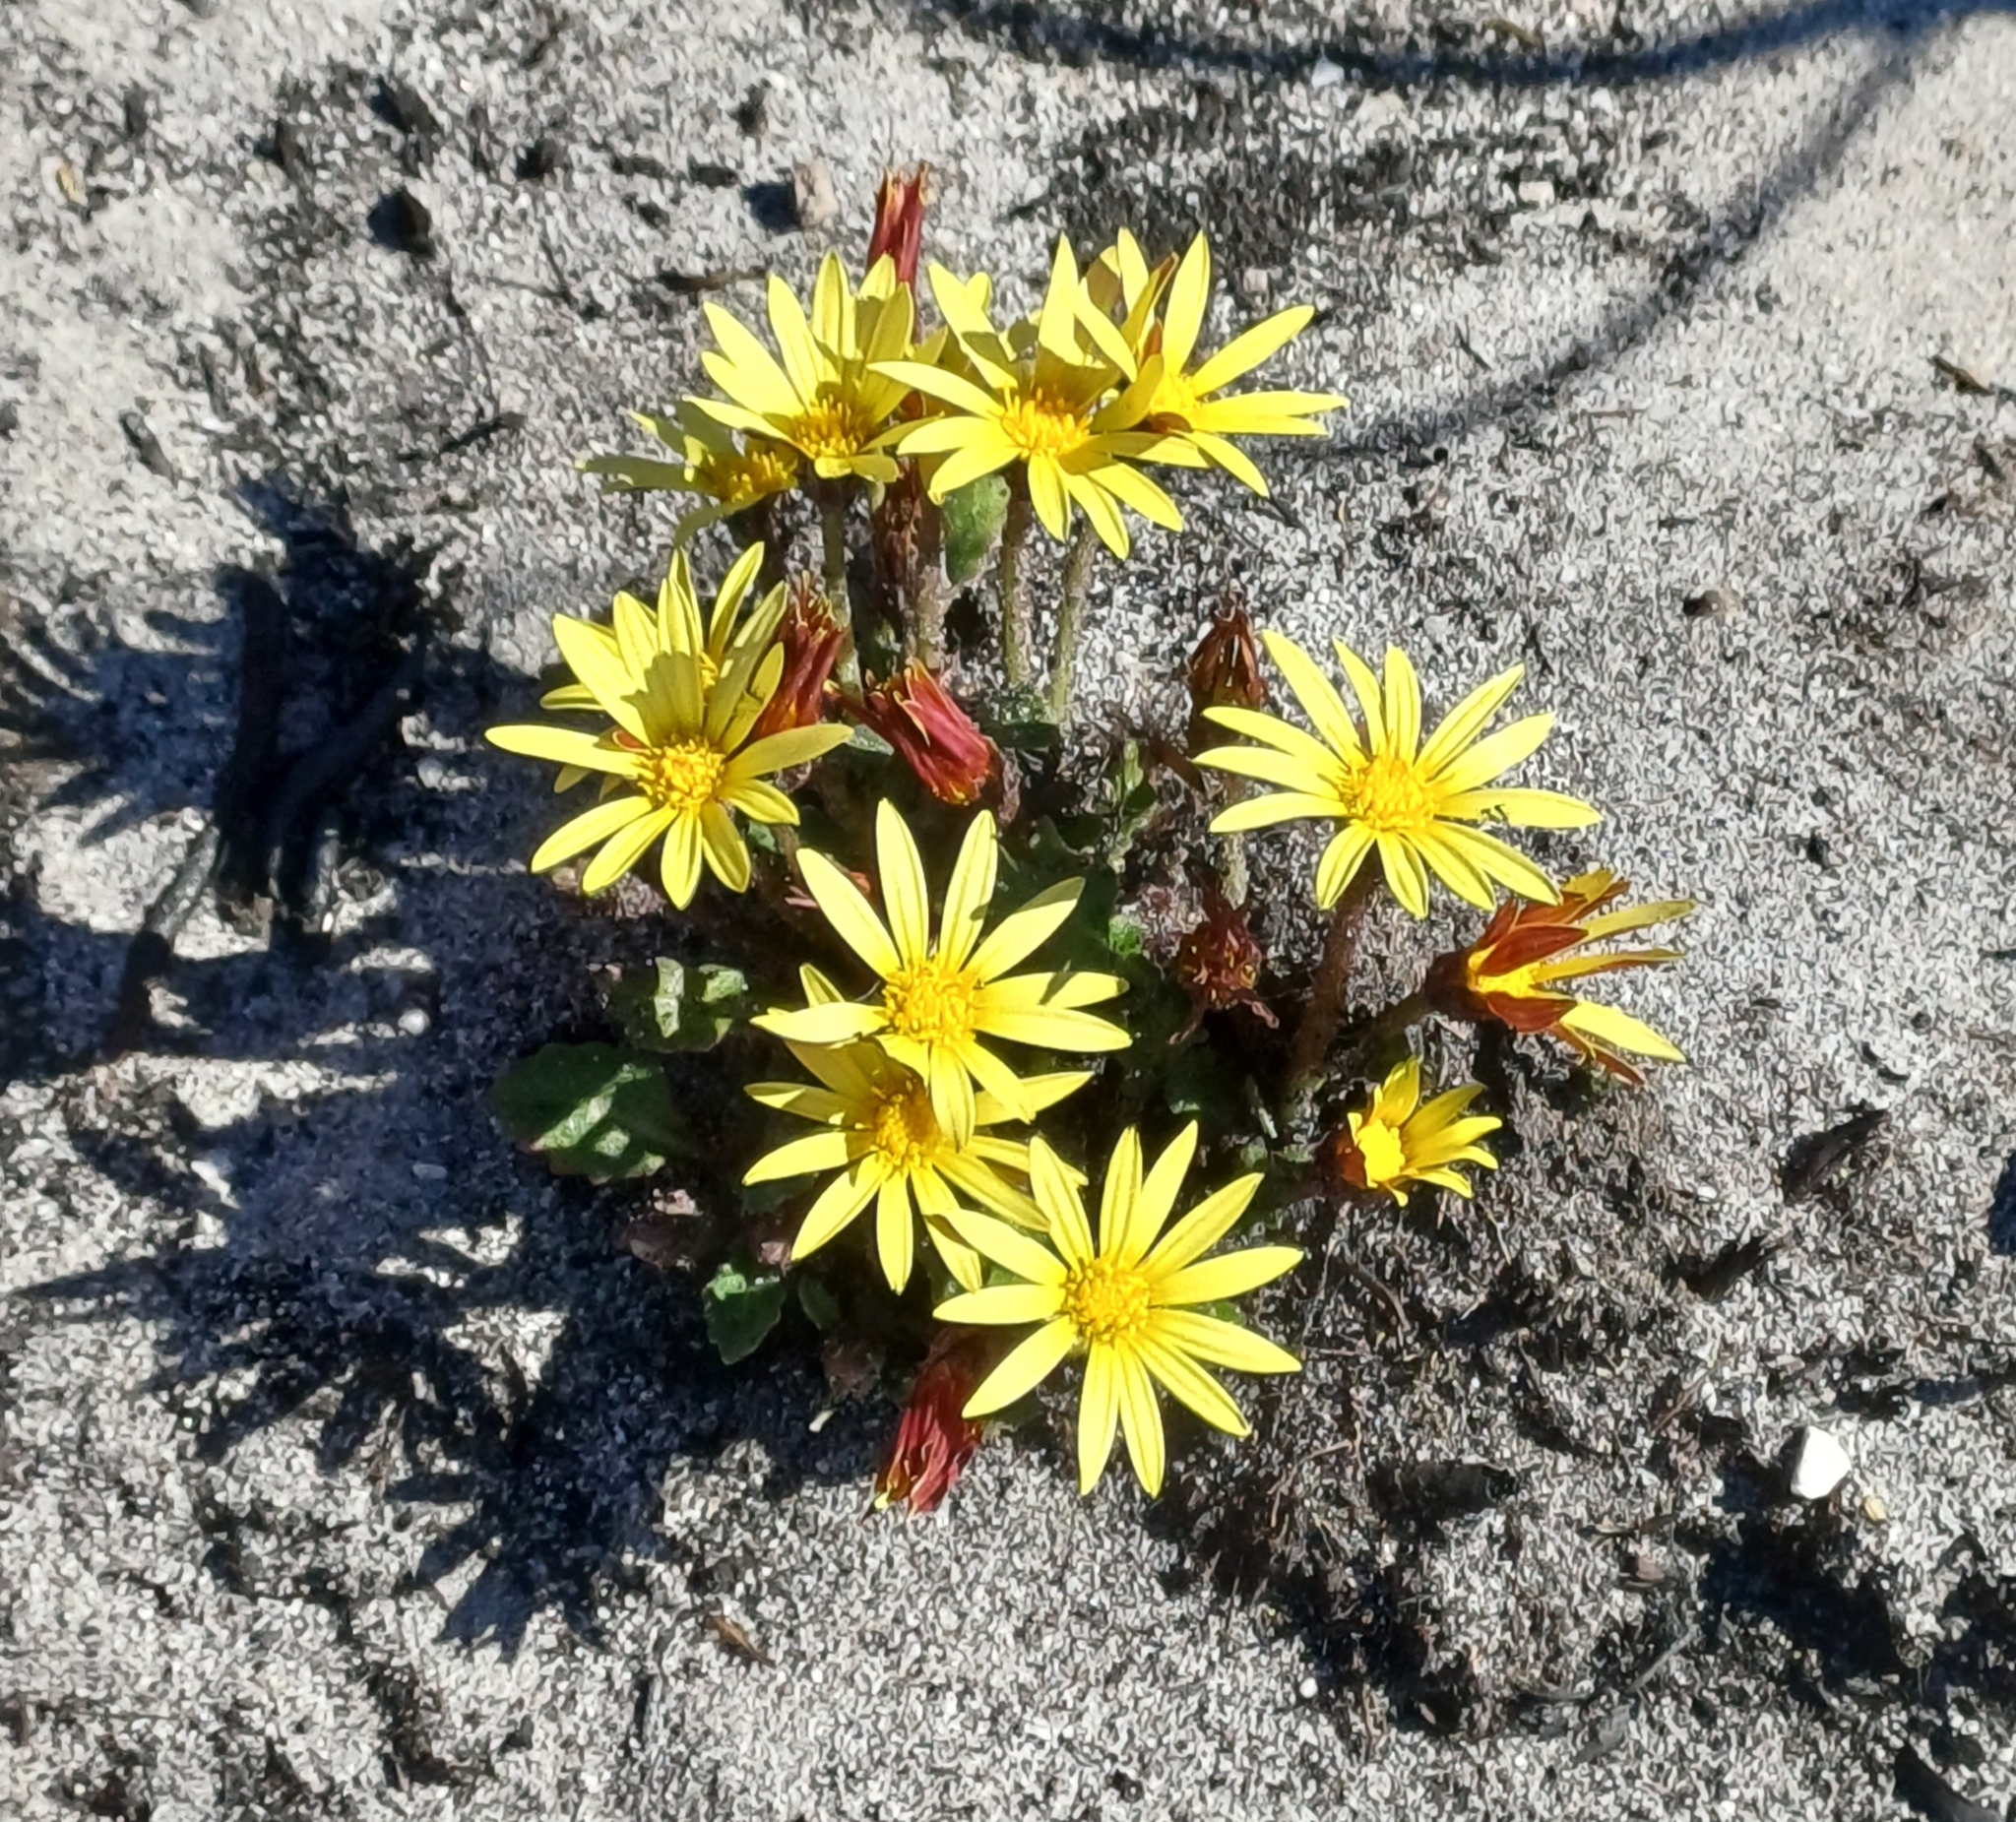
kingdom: Plantae
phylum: Tracheophyta
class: Magnoliopsida
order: Asterales
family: Asteraceae
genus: Haplocarpha
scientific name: Haplocarpha lanata
